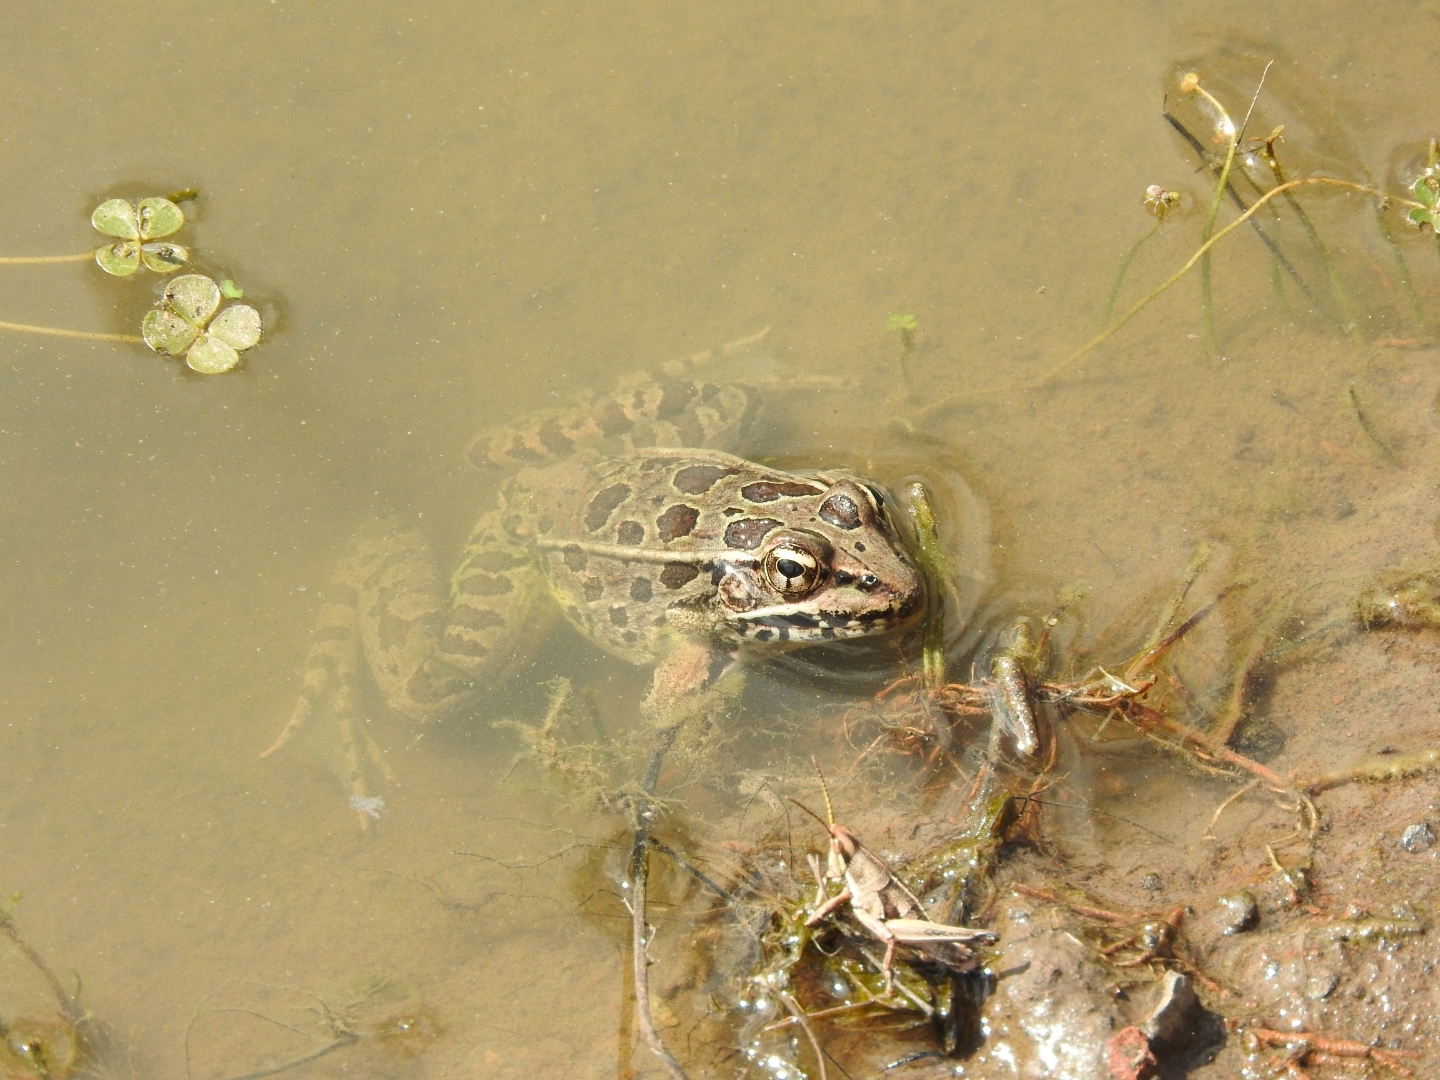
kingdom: Animalia
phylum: Chordata
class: Amphibia
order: Anura
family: Ranidae
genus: Lithobates
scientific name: Lithobates neovolcanicus
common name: Transverse volcanic leopard frog
